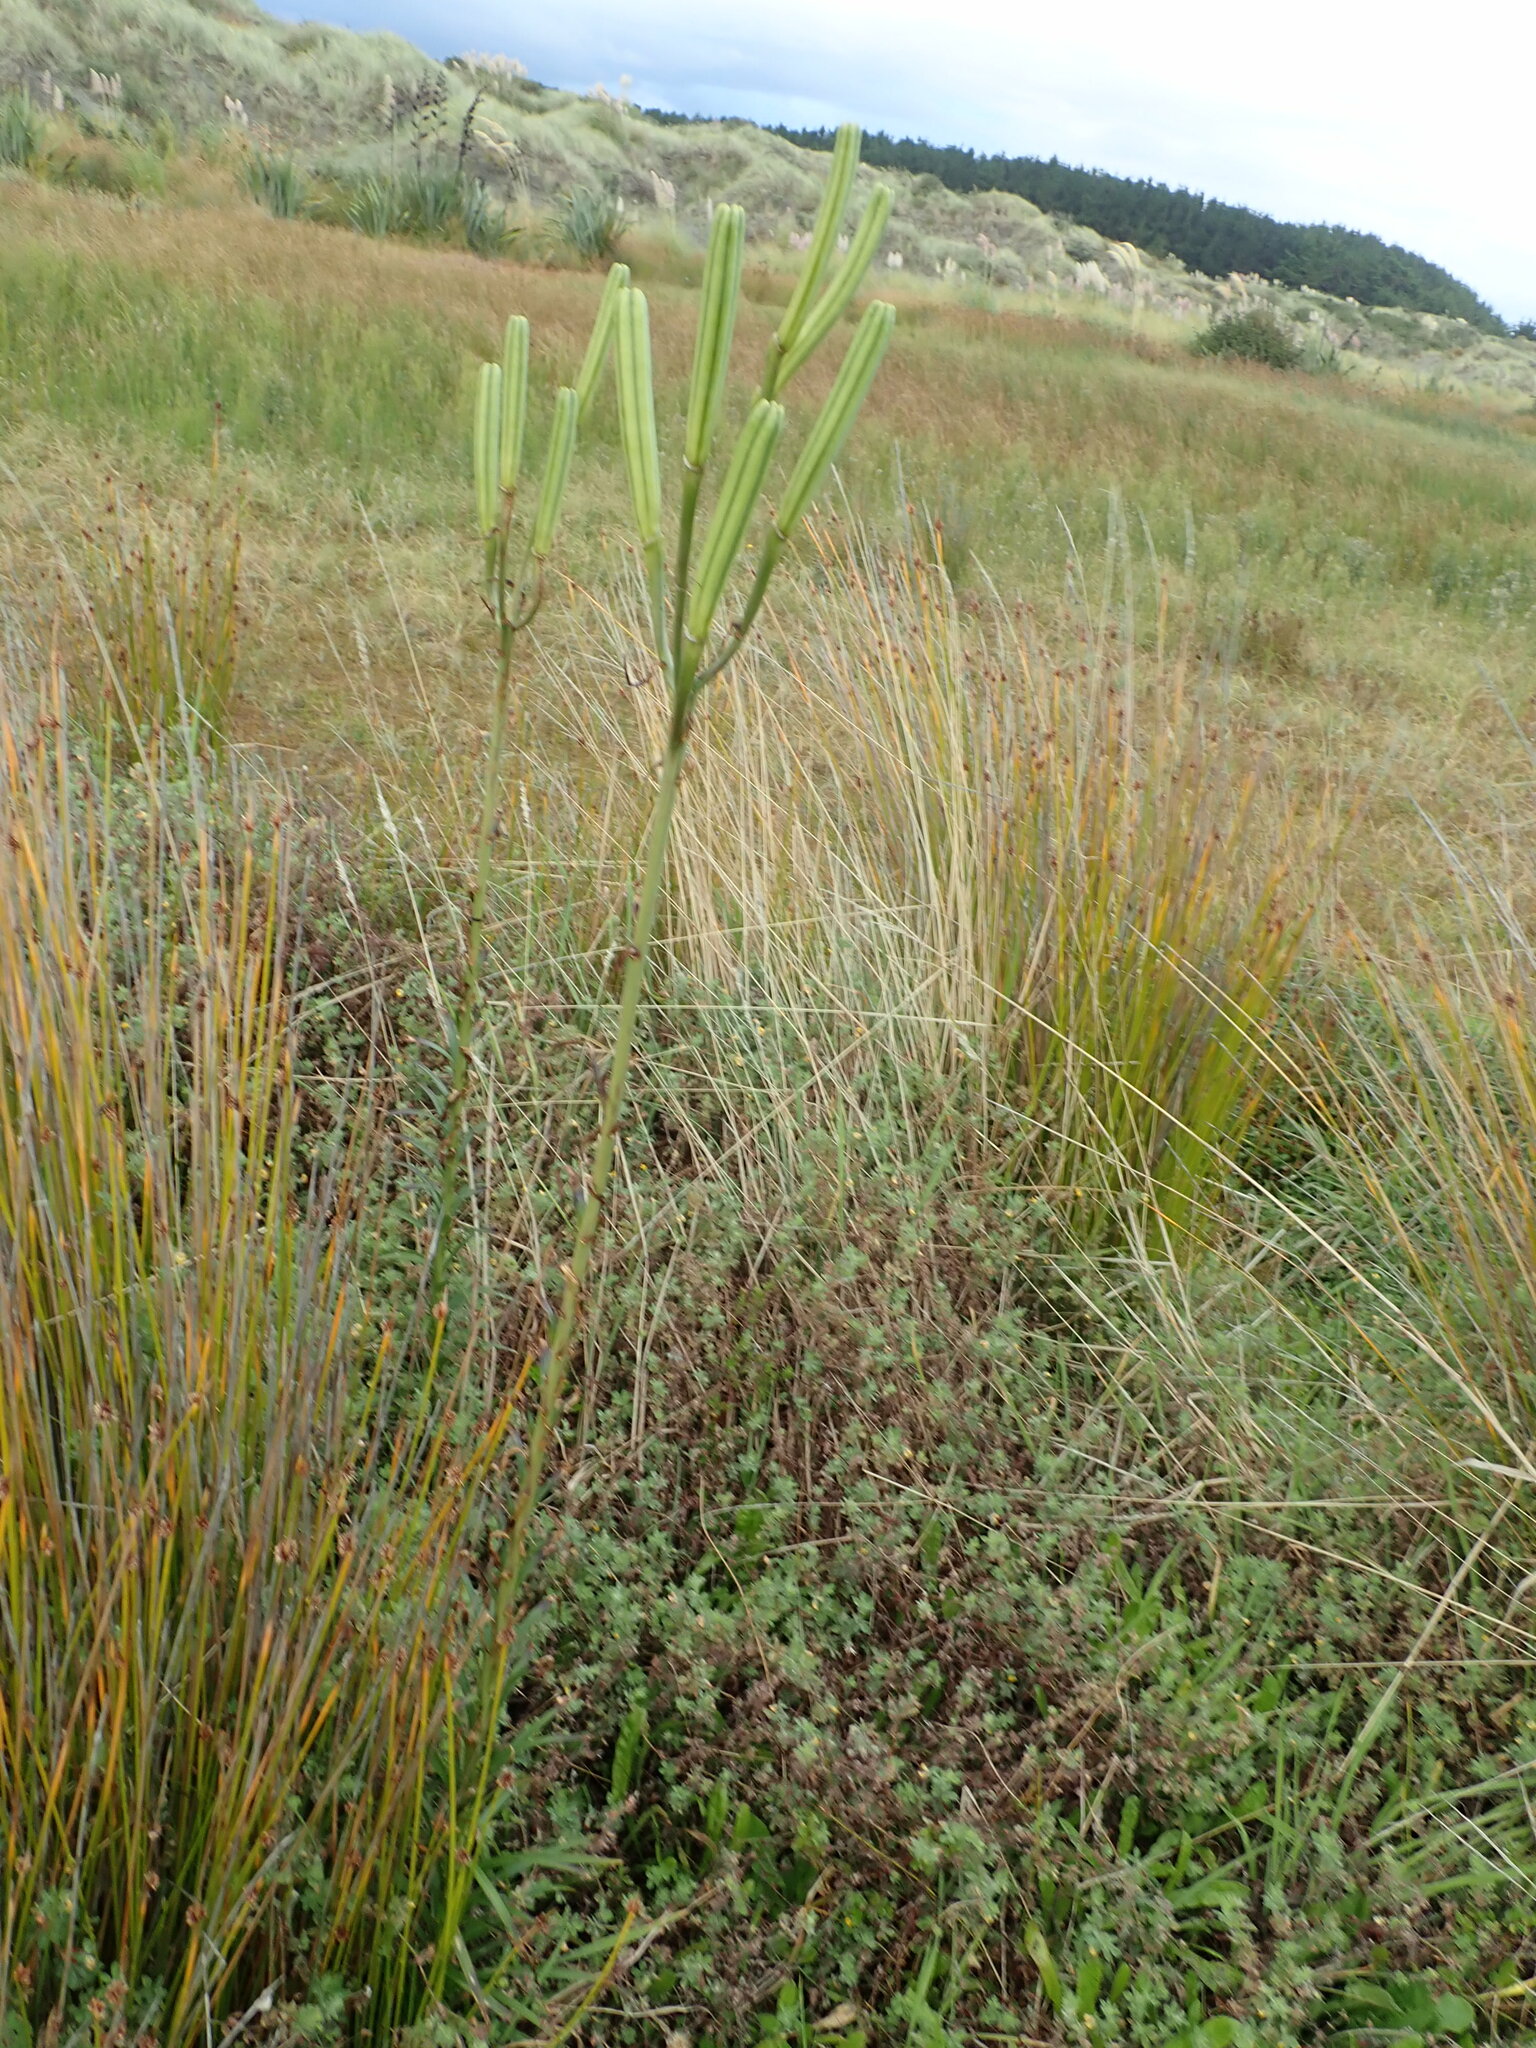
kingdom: Plantae
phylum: Tracheophyta
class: Liliopsida
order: Liliales
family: Liliaceae
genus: Lilium
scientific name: Lilium formosanum
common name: Formosa lily
